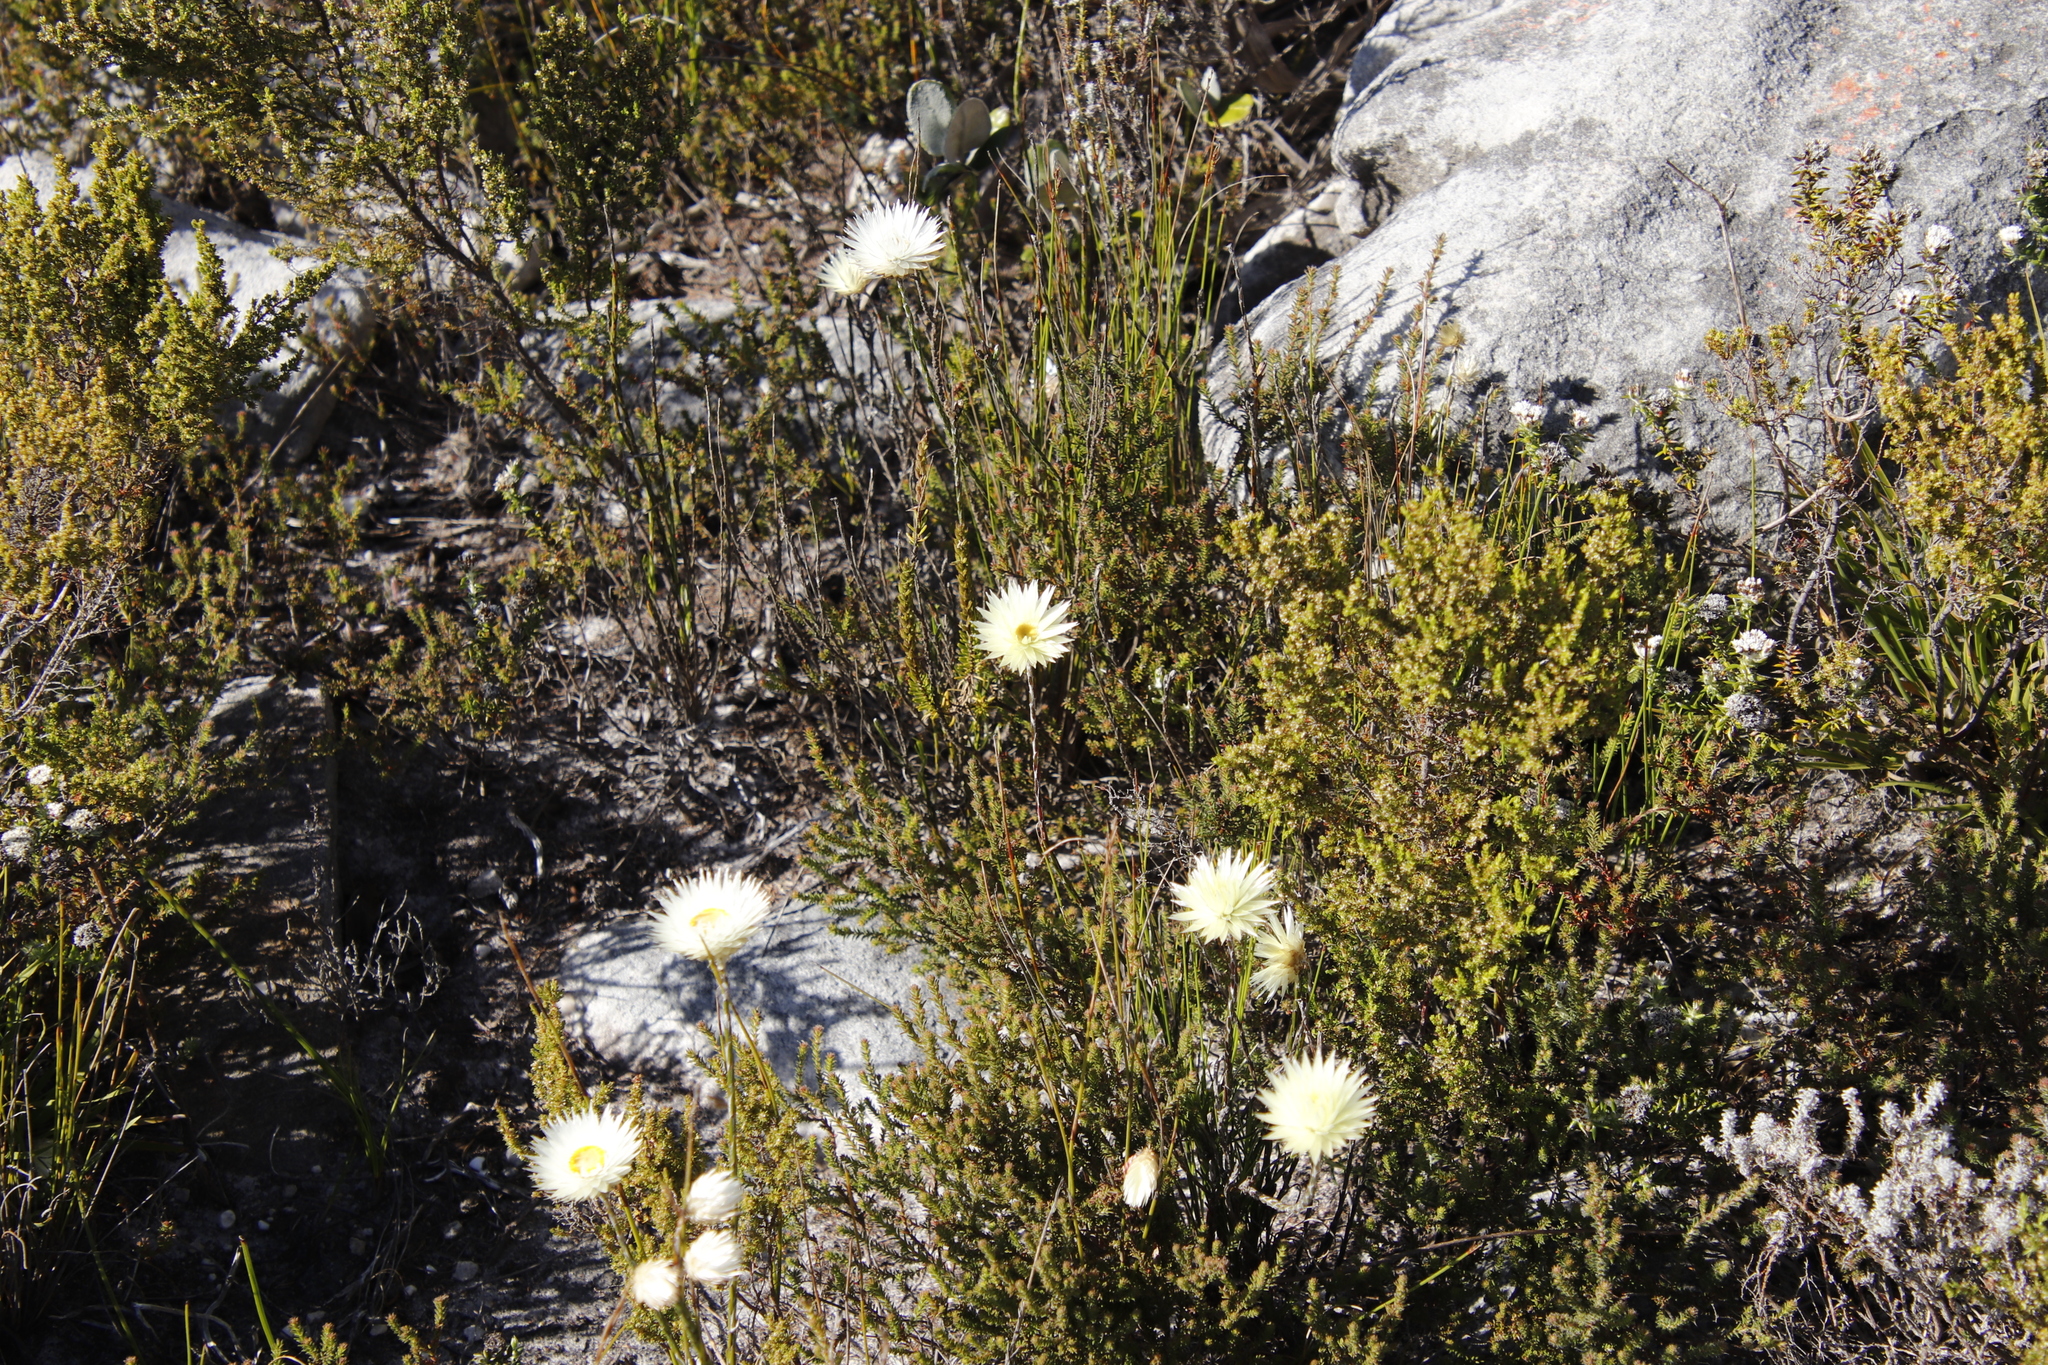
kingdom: Plantae
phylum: Tracheophyta
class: Magnoliopsida
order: Asterales
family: Asteraceae
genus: Edmondia
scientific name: Edmondia sesamoides
